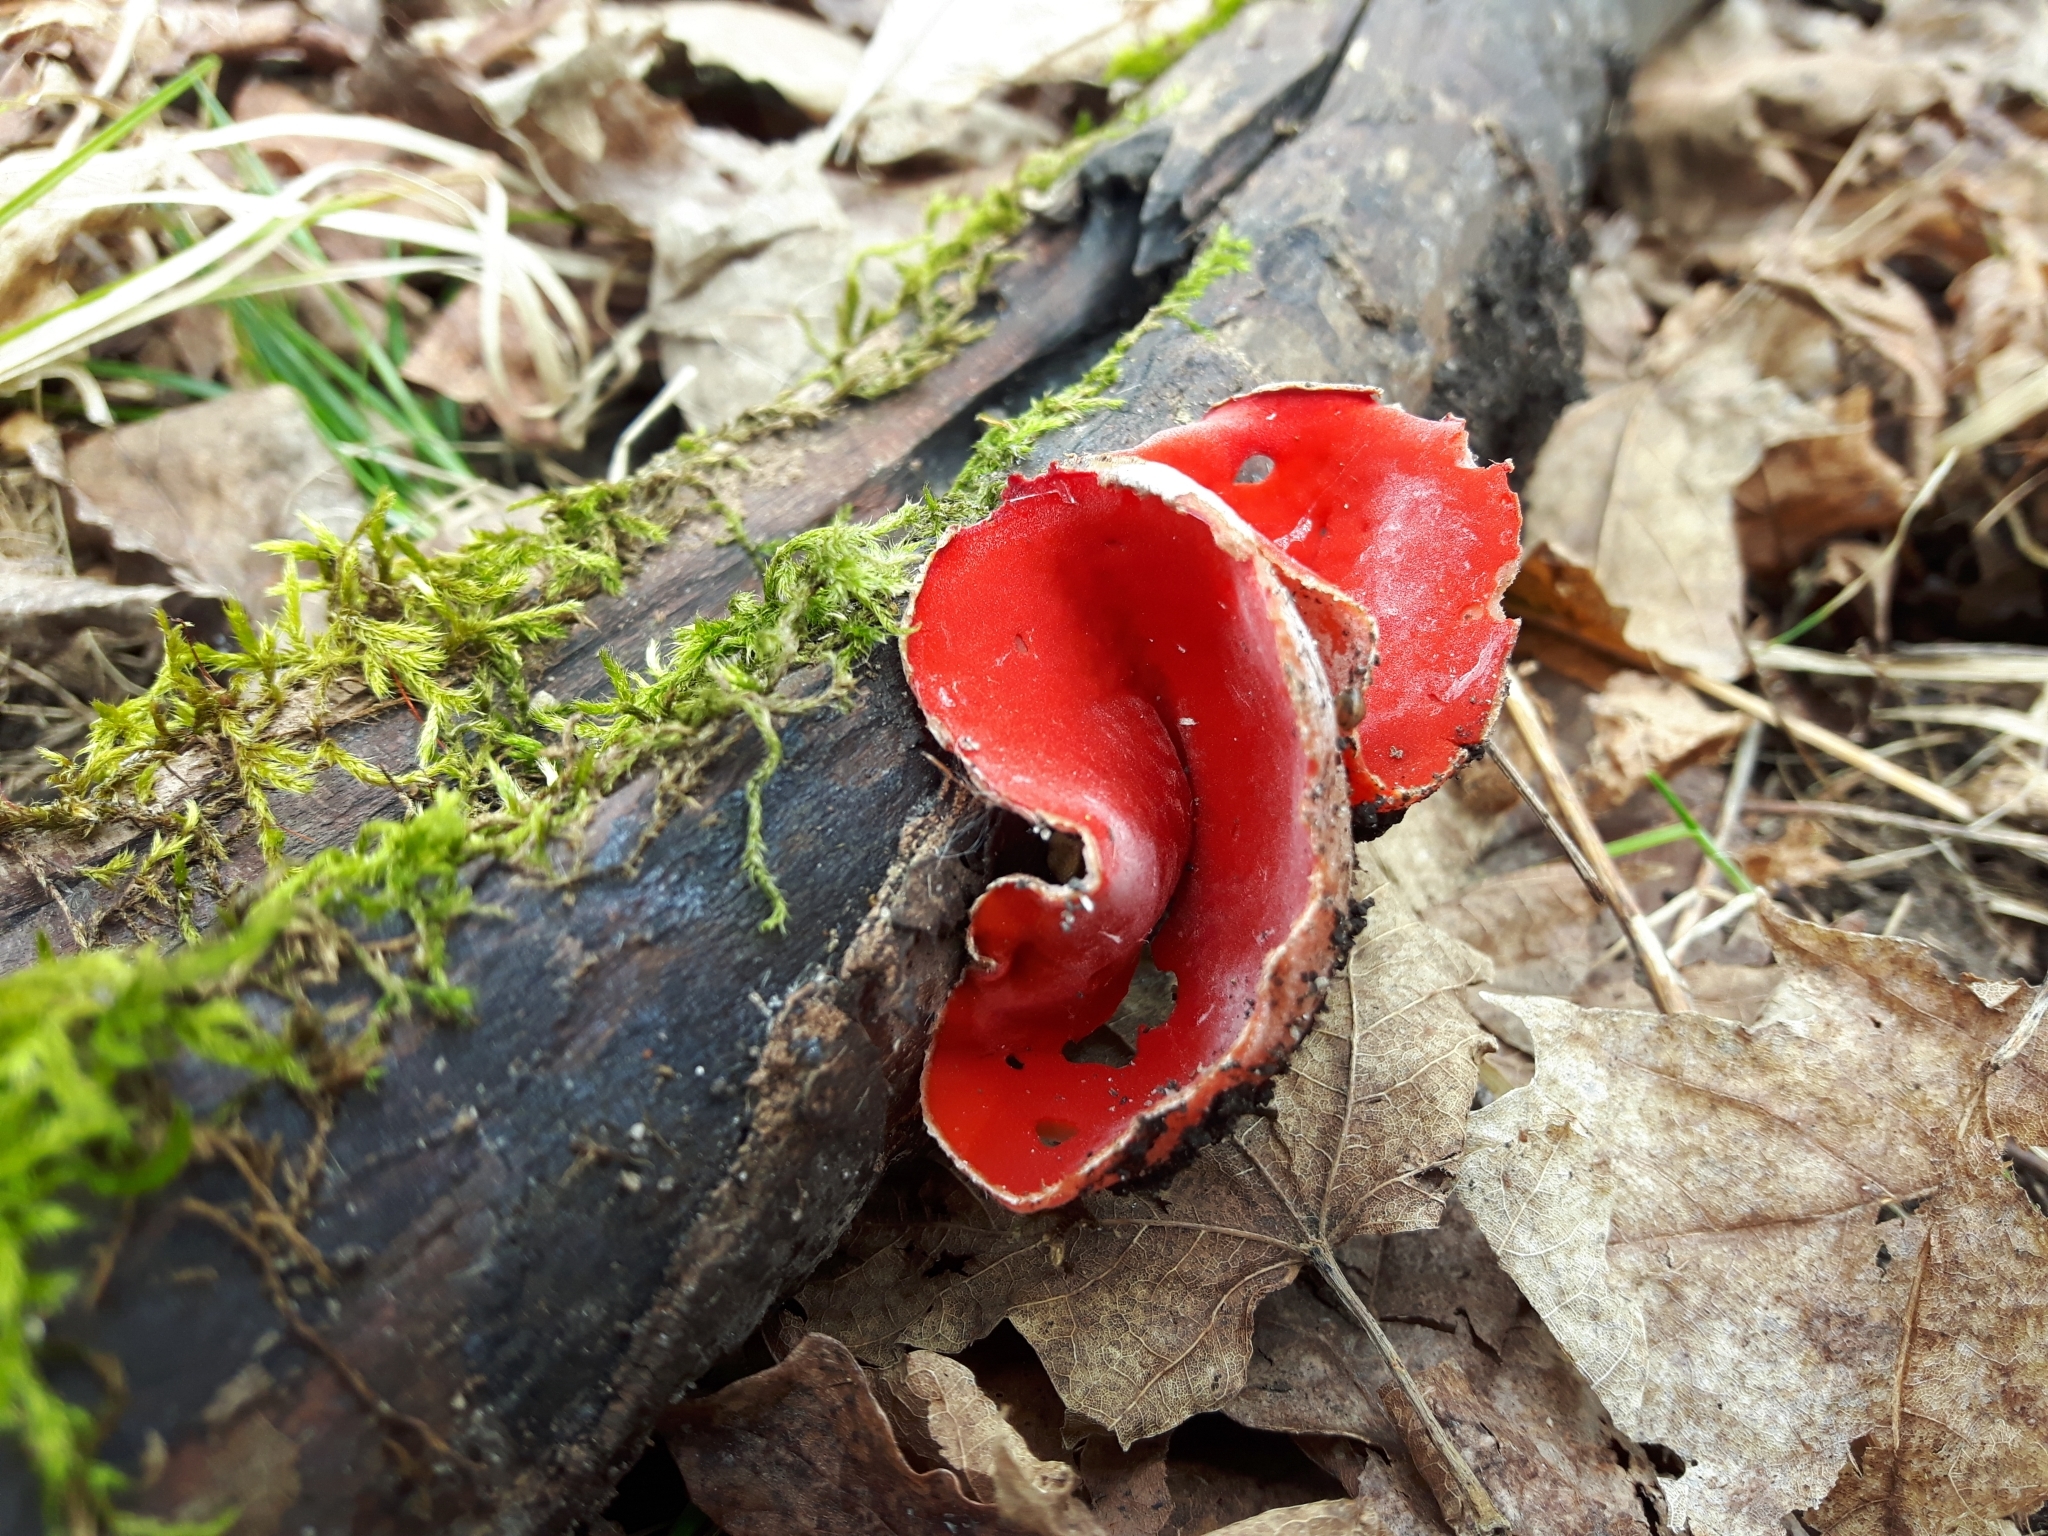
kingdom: Fungi
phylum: Ascomycota
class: Pezizomycetes
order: Pezizales
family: Sarcoscyphaceae
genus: Sarcoscypha
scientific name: Sarcoscypha austriaca
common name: Scarlet elfcup
